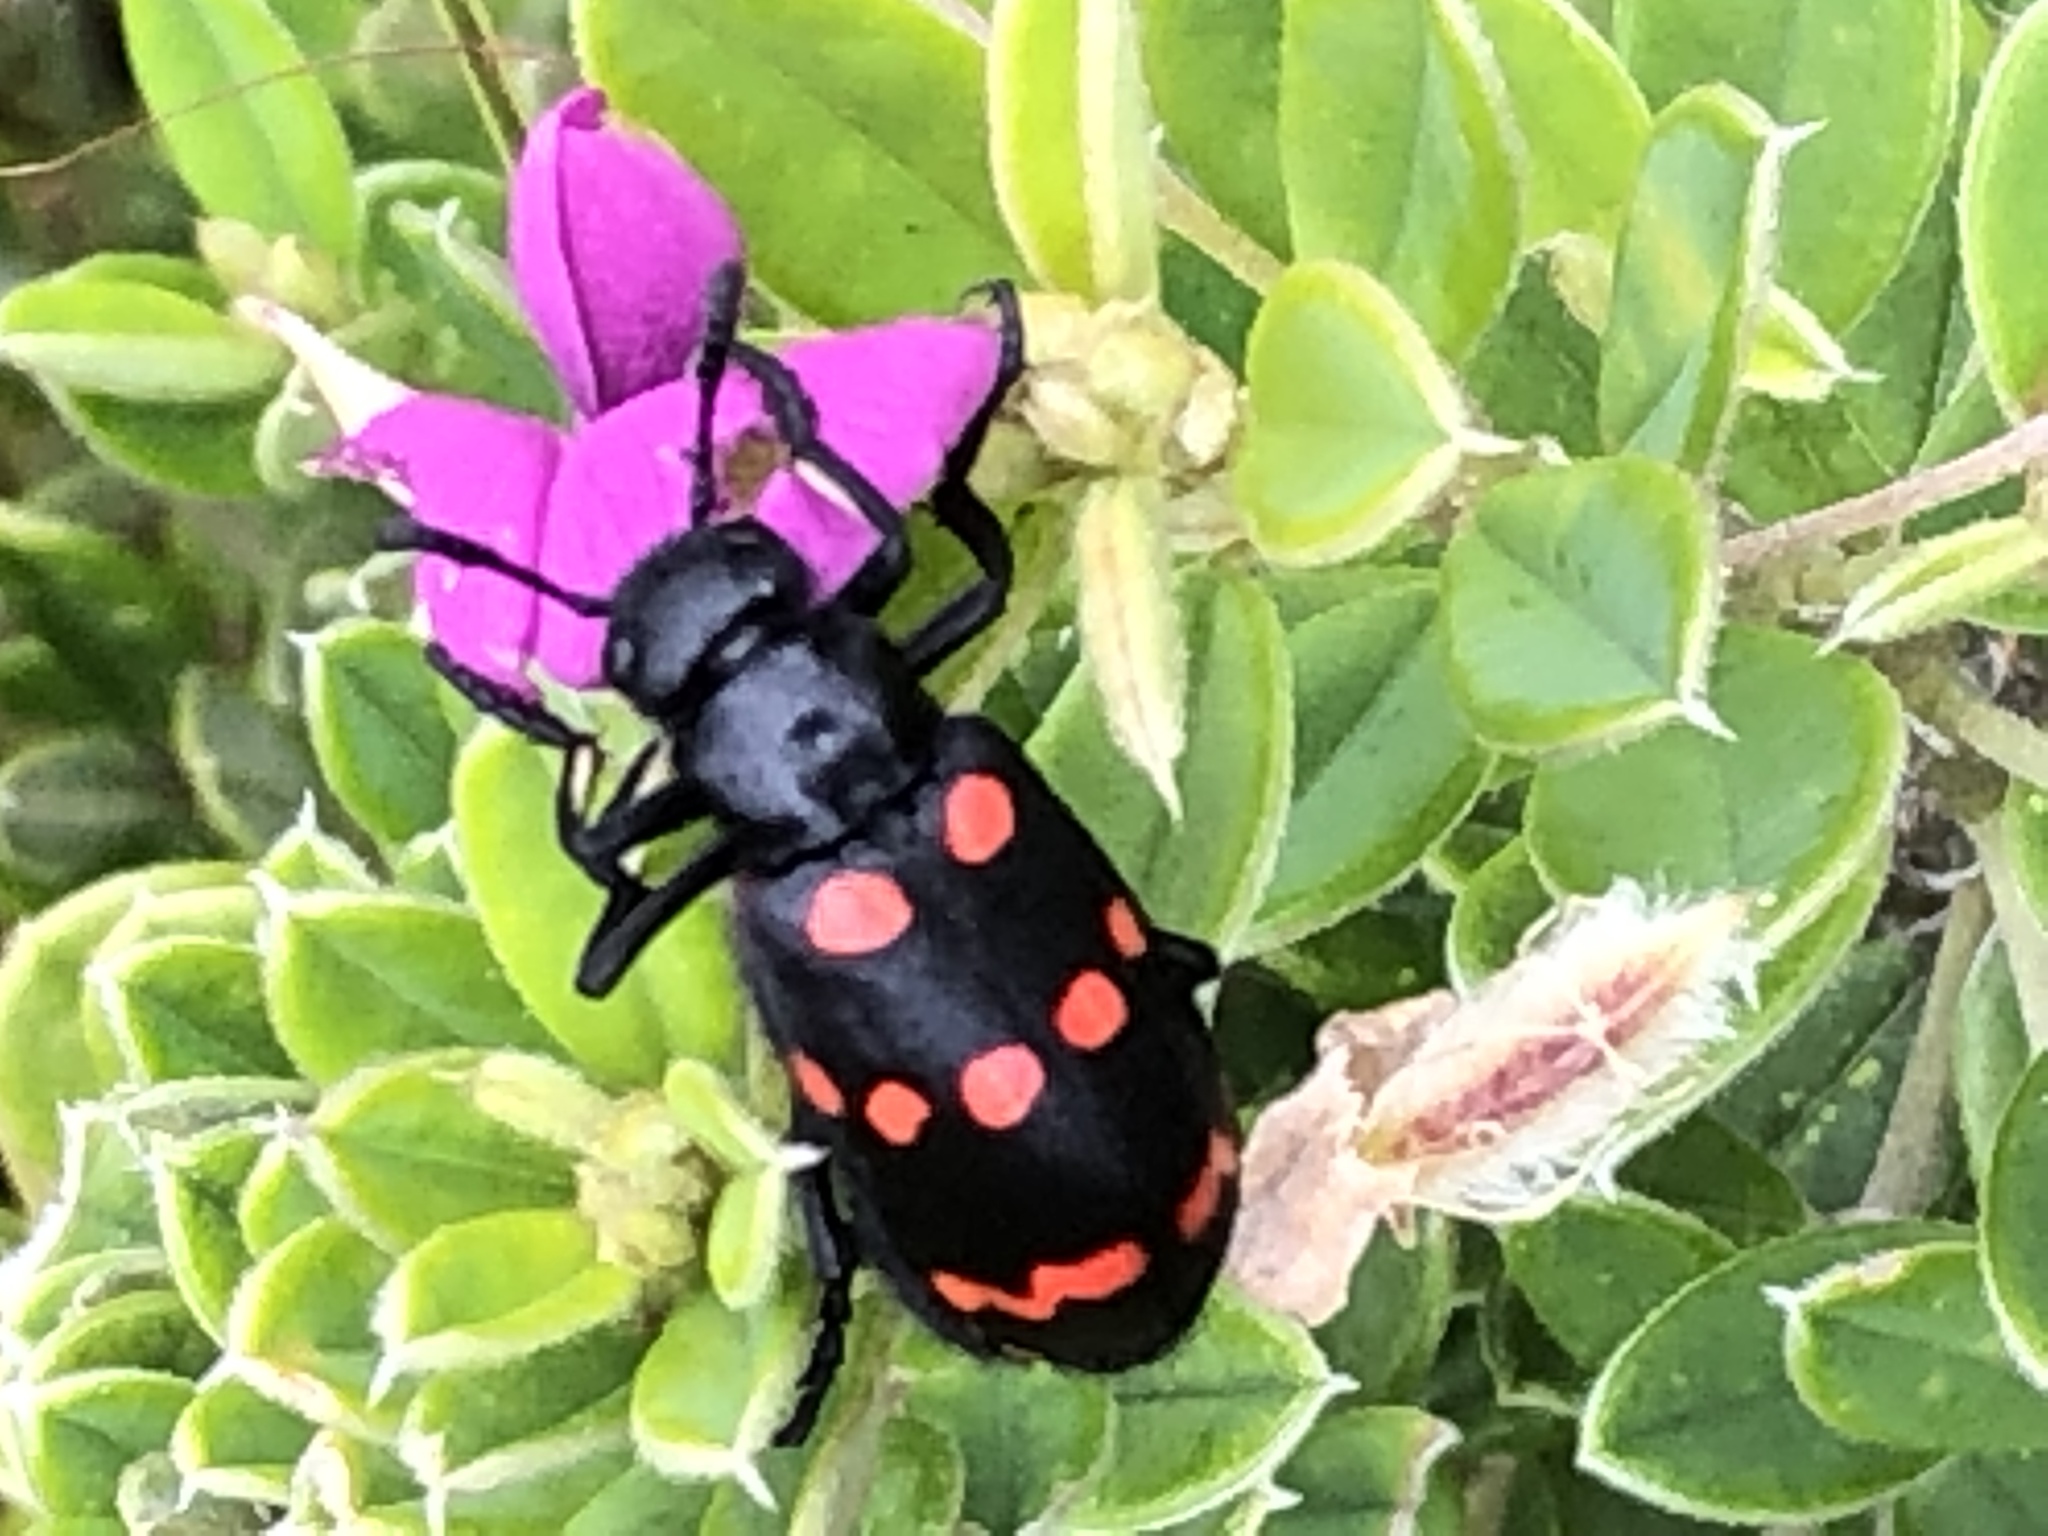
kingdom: Animalia
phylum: Arthropoda
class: Insecta
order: Coleoptera
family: Meloidae
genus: Hycleus
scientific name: Hycleus
